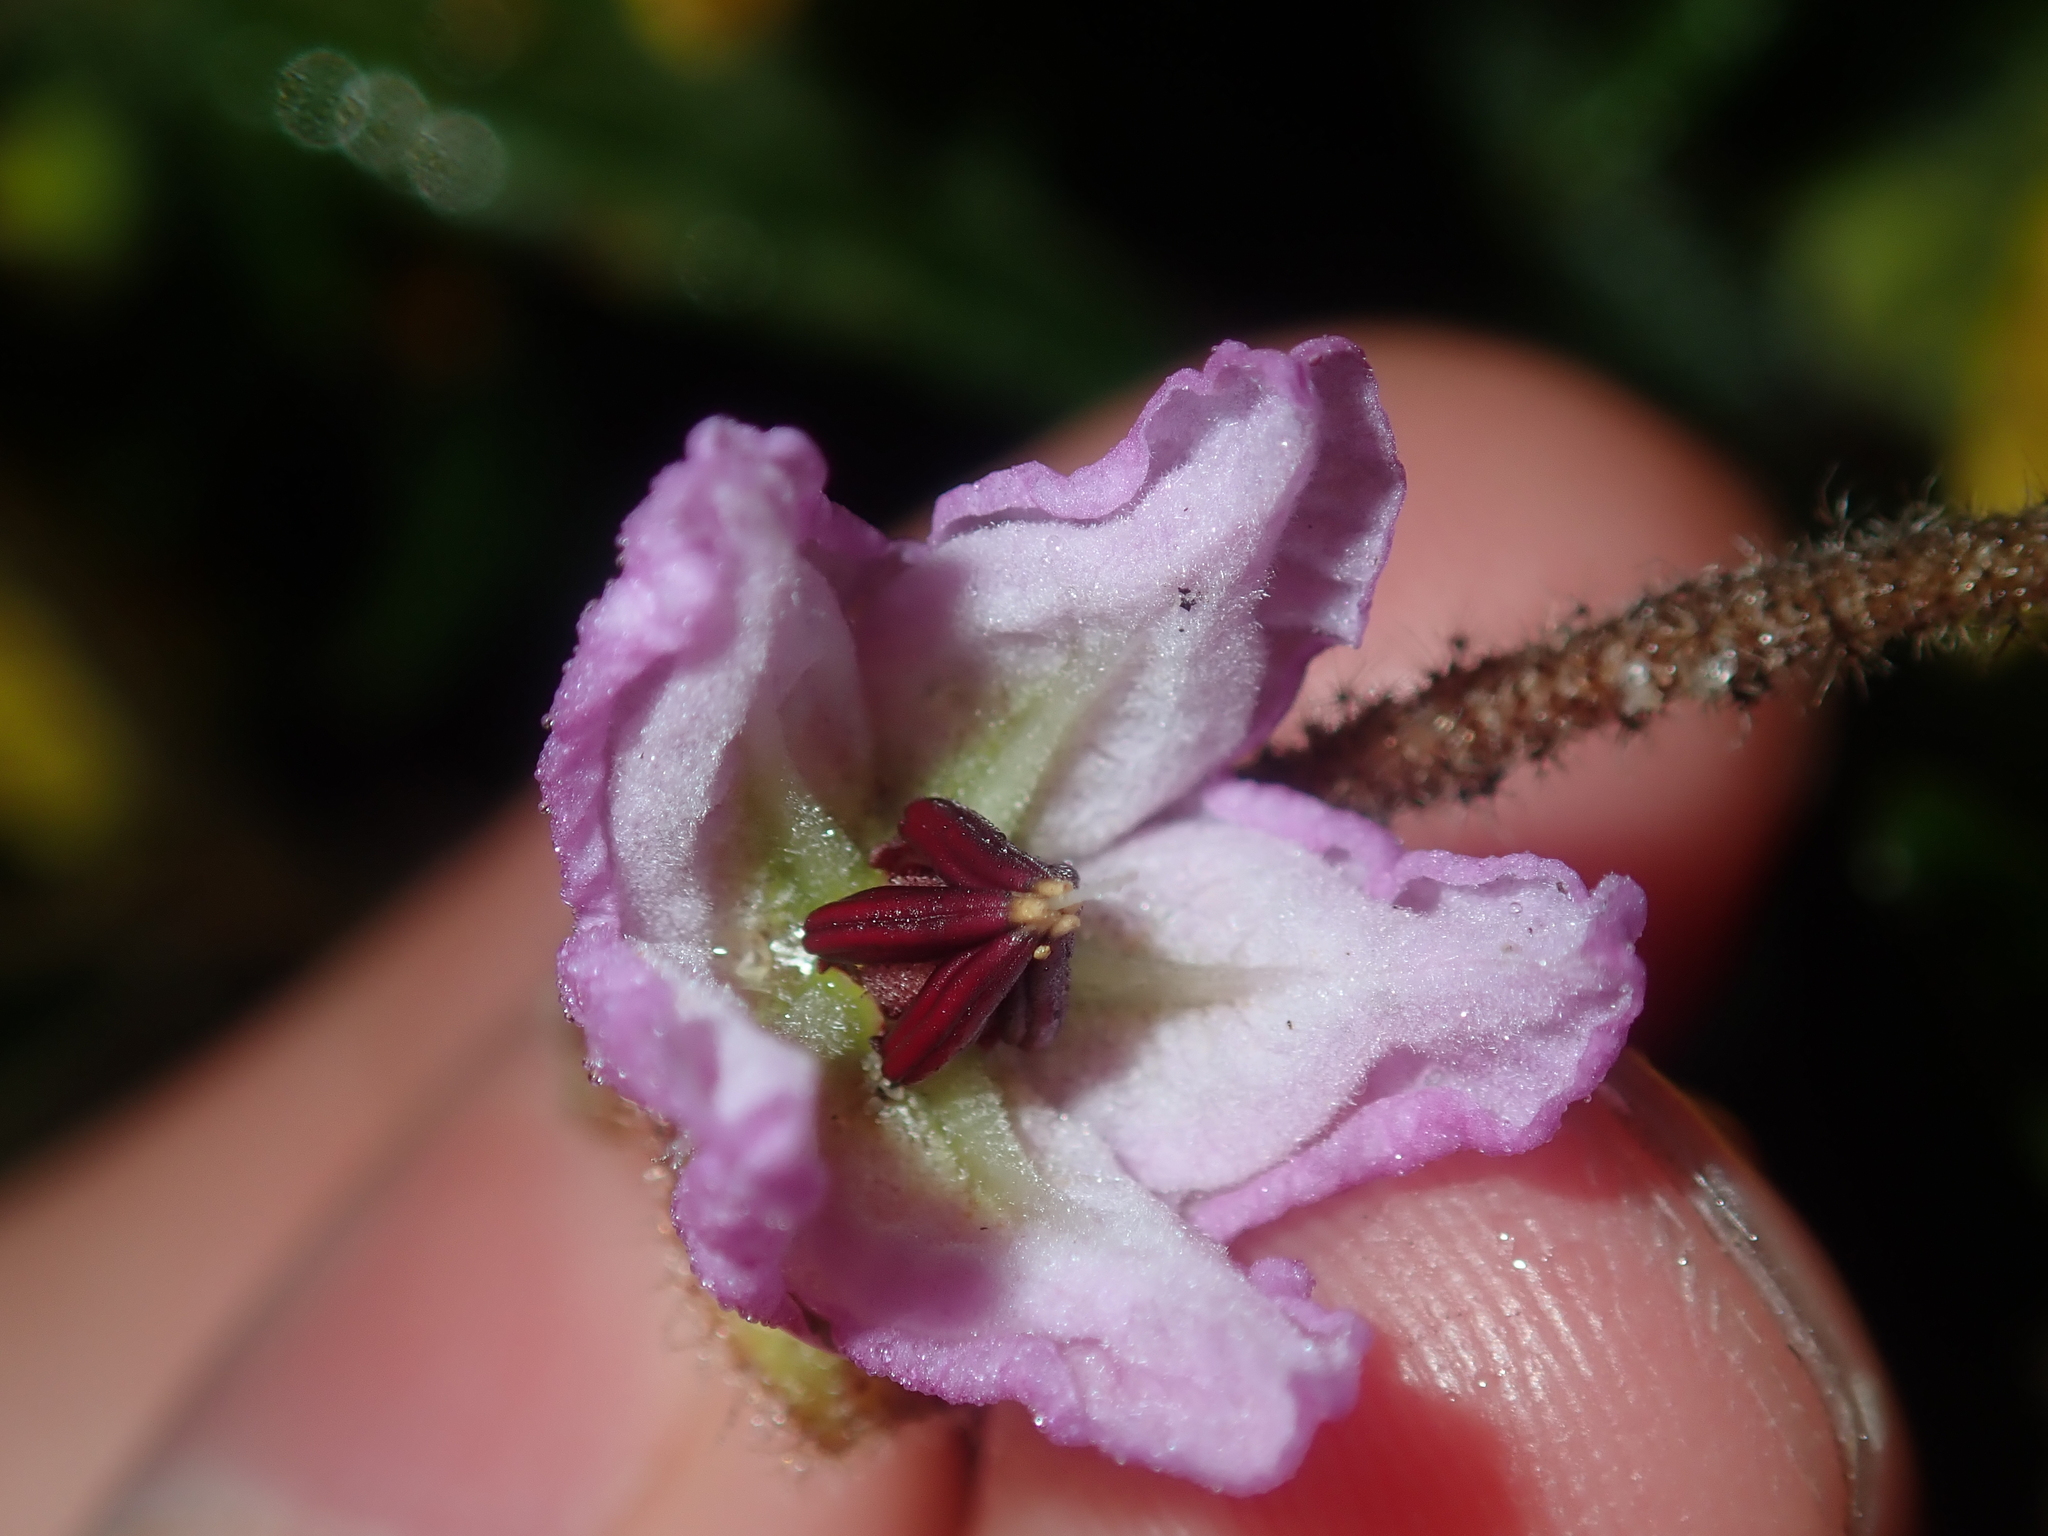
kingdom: Plantae
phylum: Tracheophyta
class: Magnoliopsida
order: Malvales
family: Malvaceae
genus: Thomasia
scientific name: Thomasia grandiflora
